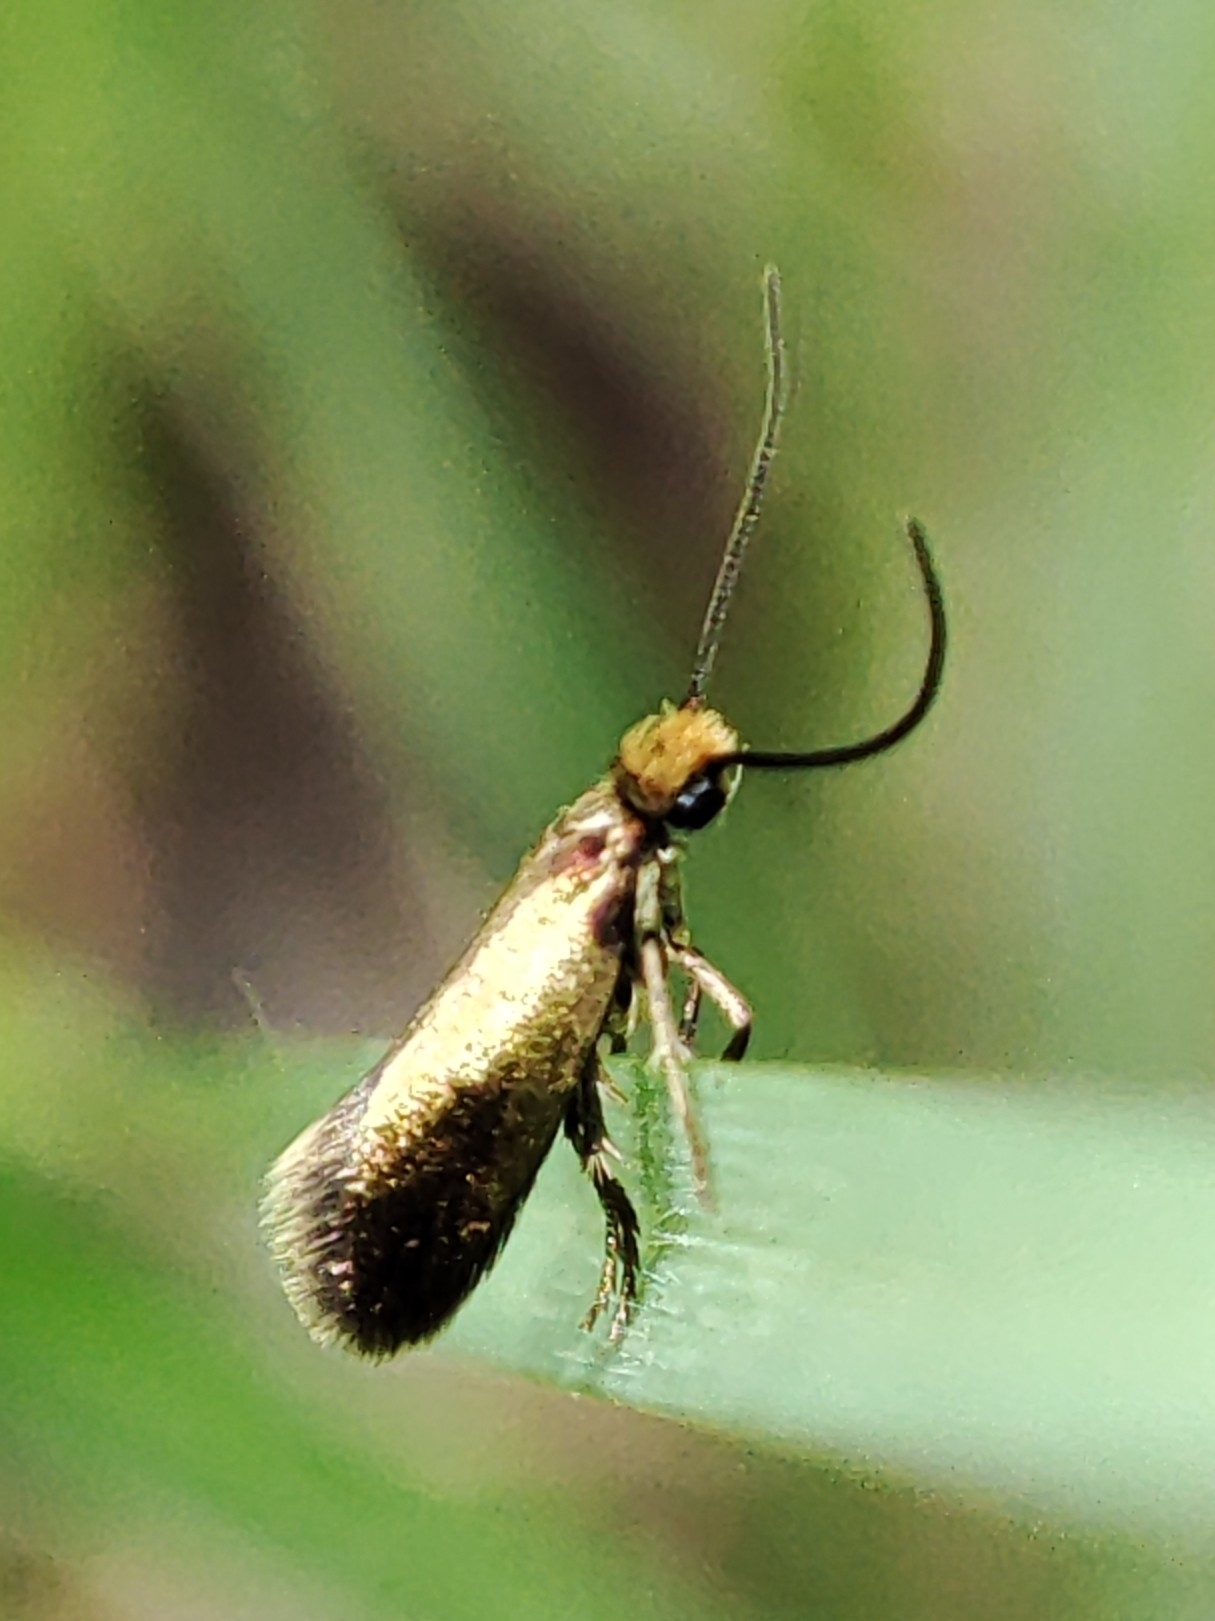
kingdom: Animalia
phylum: Arthropoda
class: Insecta
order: Lepidoptera
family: Micropterigidae
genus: Micropterix
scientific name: Micropterix calthella
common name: Plain gold
